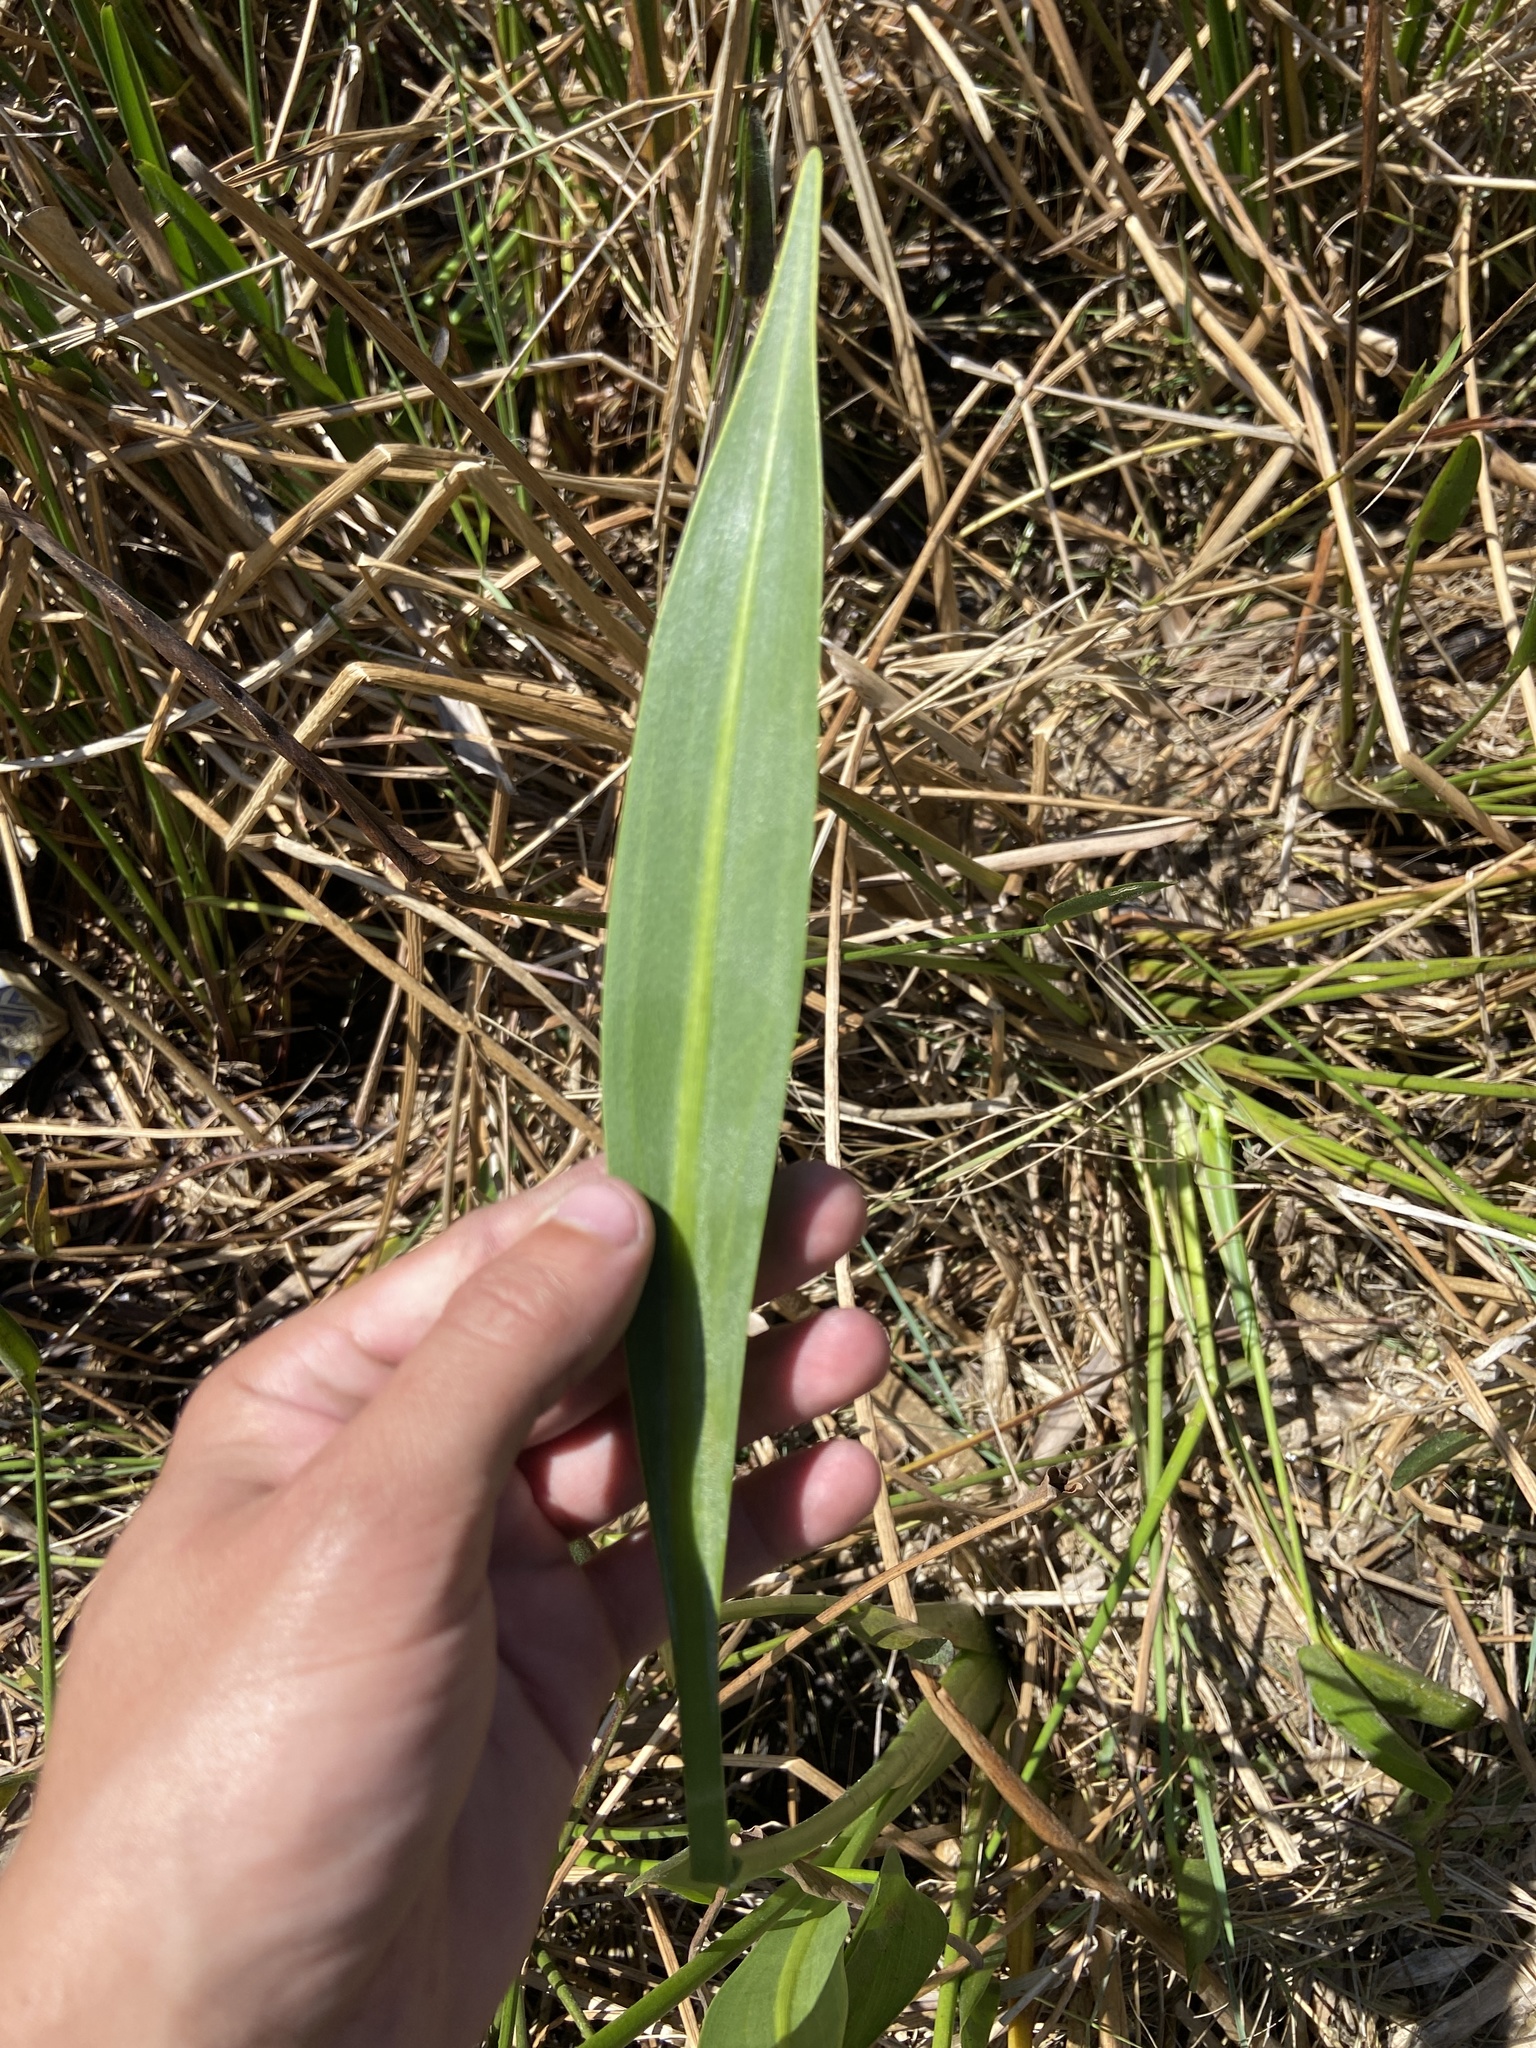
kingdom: Plantae
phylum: Tracheophyta
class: Liliopsida
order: Alismatales
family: Alismataceae
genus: Sagittaria
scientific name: Sagittaria lancifolia
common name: Lance-leaf arrowhead
